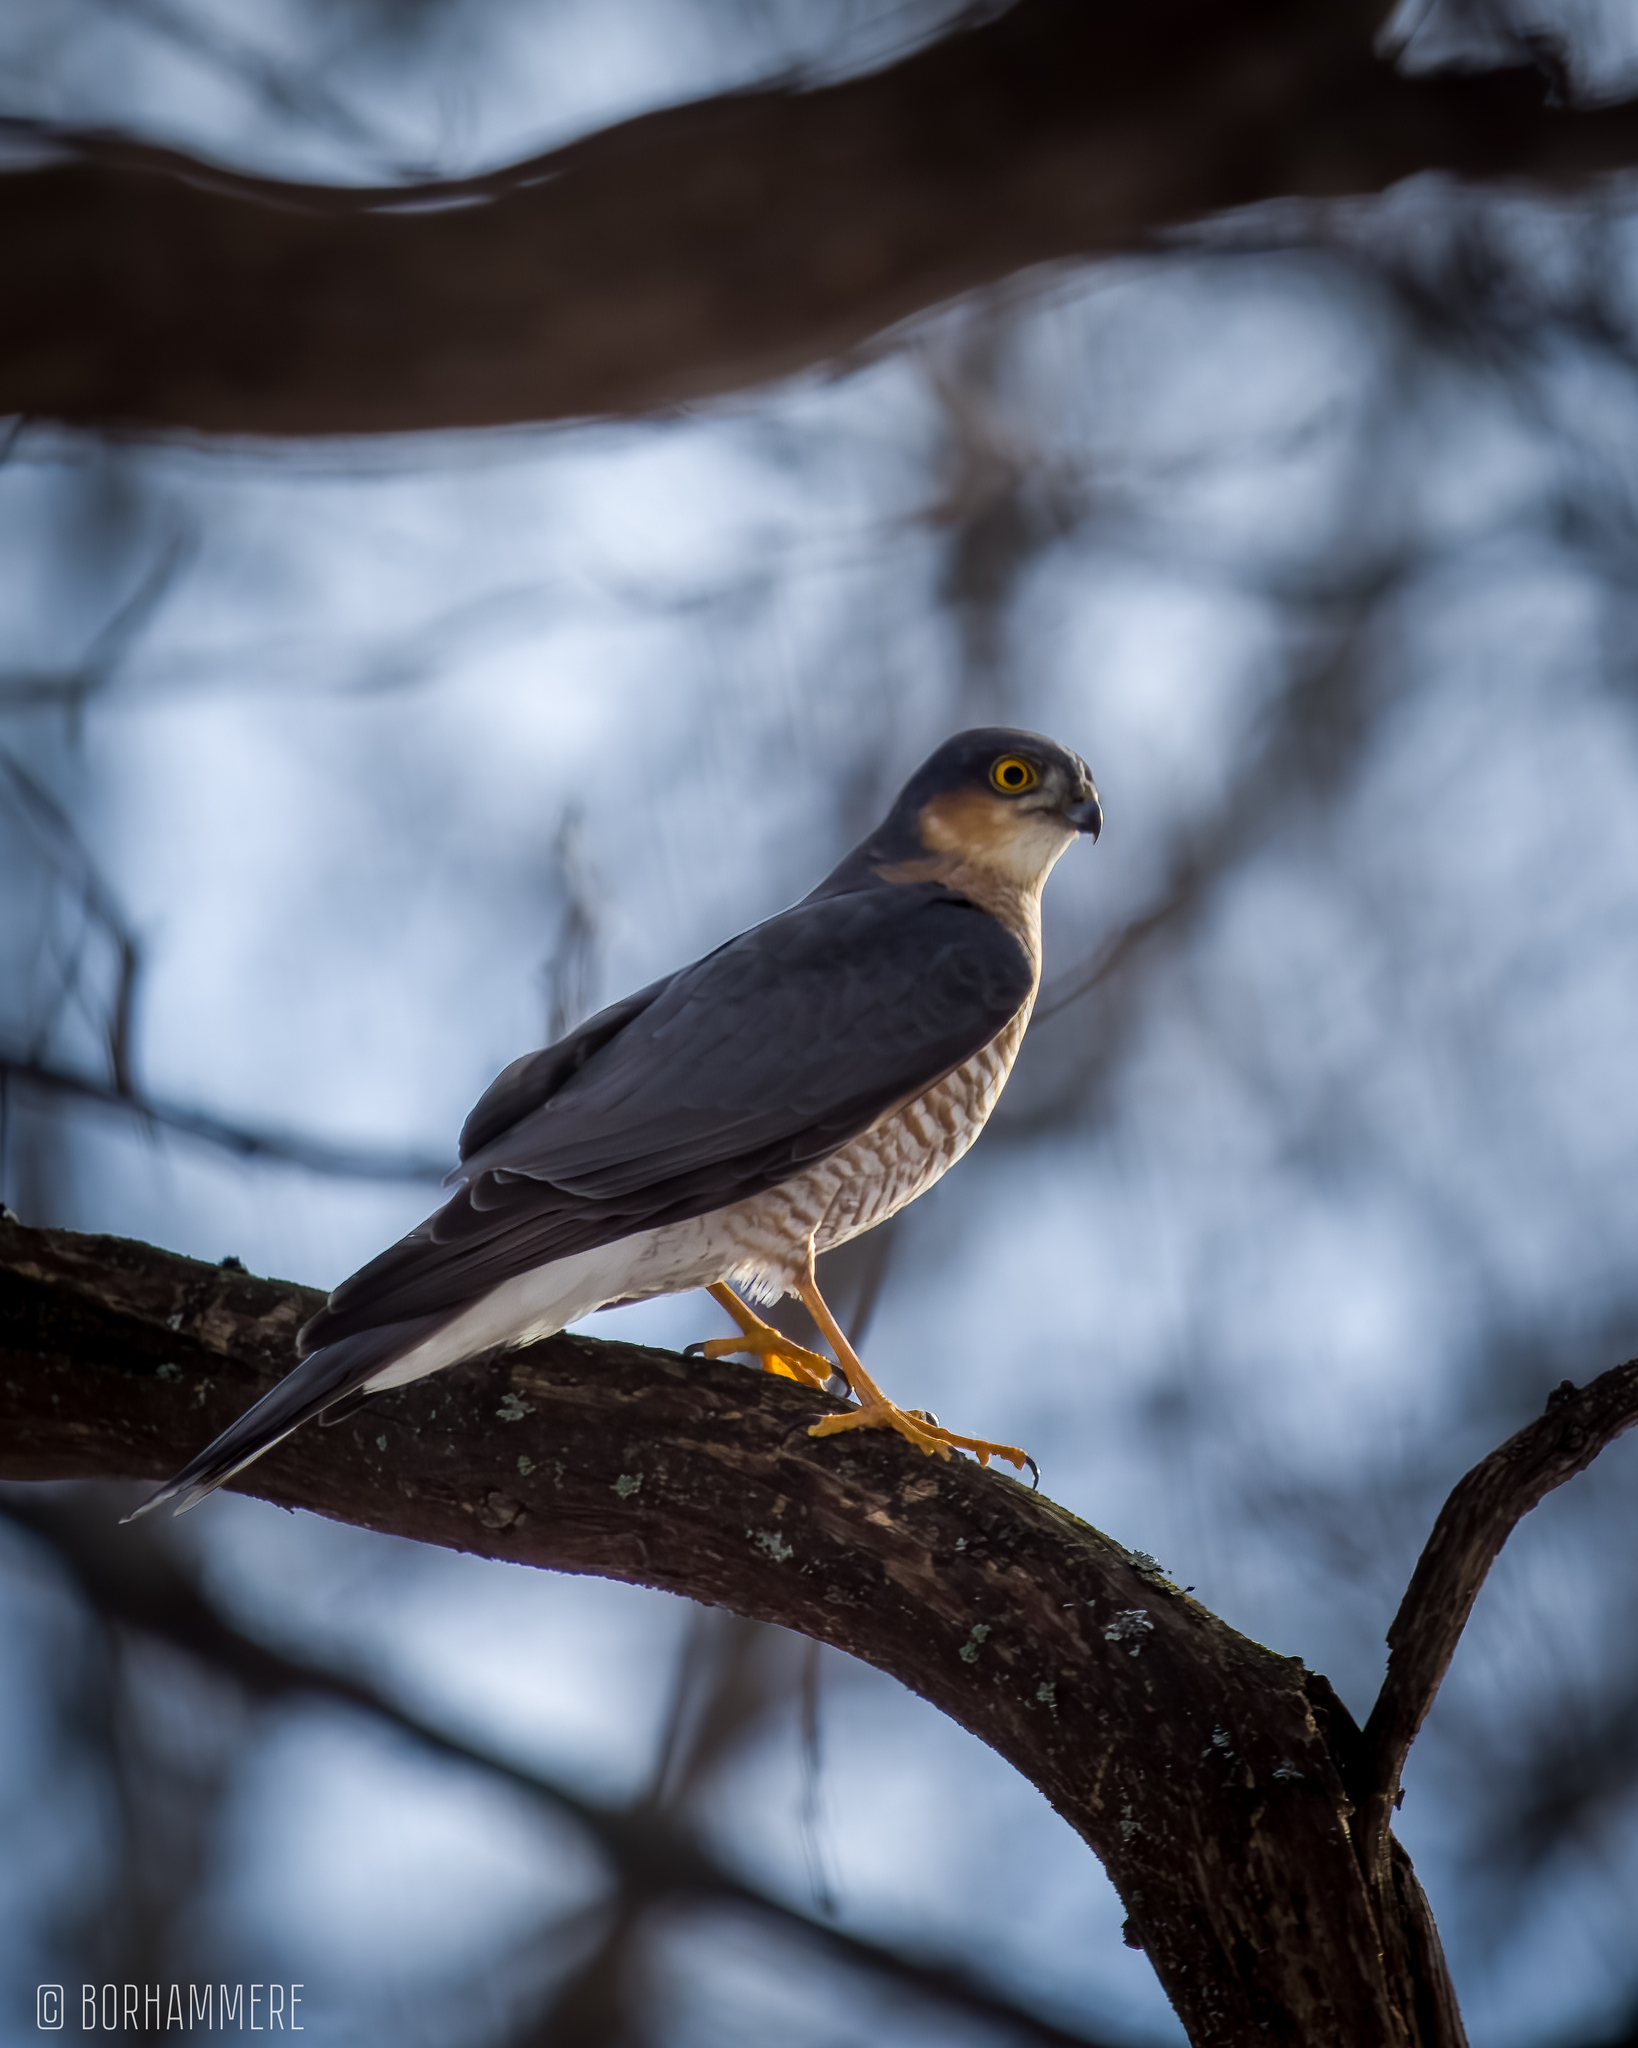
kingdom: Animalia
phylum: Chordata
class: Aves
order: Accipitriformes
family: Accipitridae
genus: Accipiter
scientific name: Accipiter nisus
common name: Eurasian sparrowhawk
